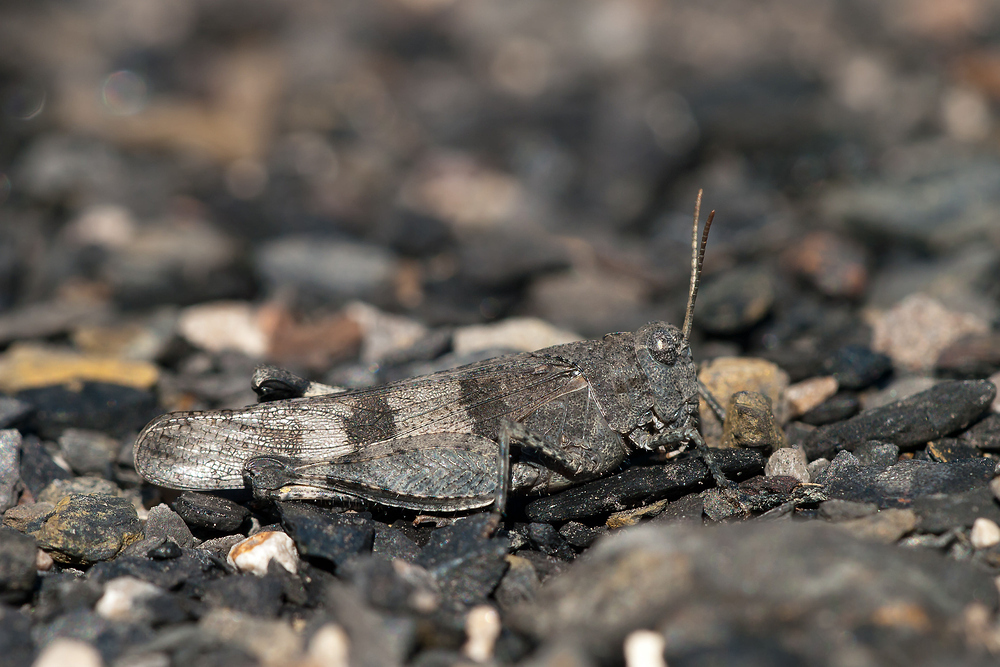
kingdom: Animalia
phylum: Arthropoda
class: Insecta
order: Orthoptera
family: Acrididae
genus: Oedipoda
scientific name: Oedipoda caerulescens
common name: Blue-winged grasshopper
